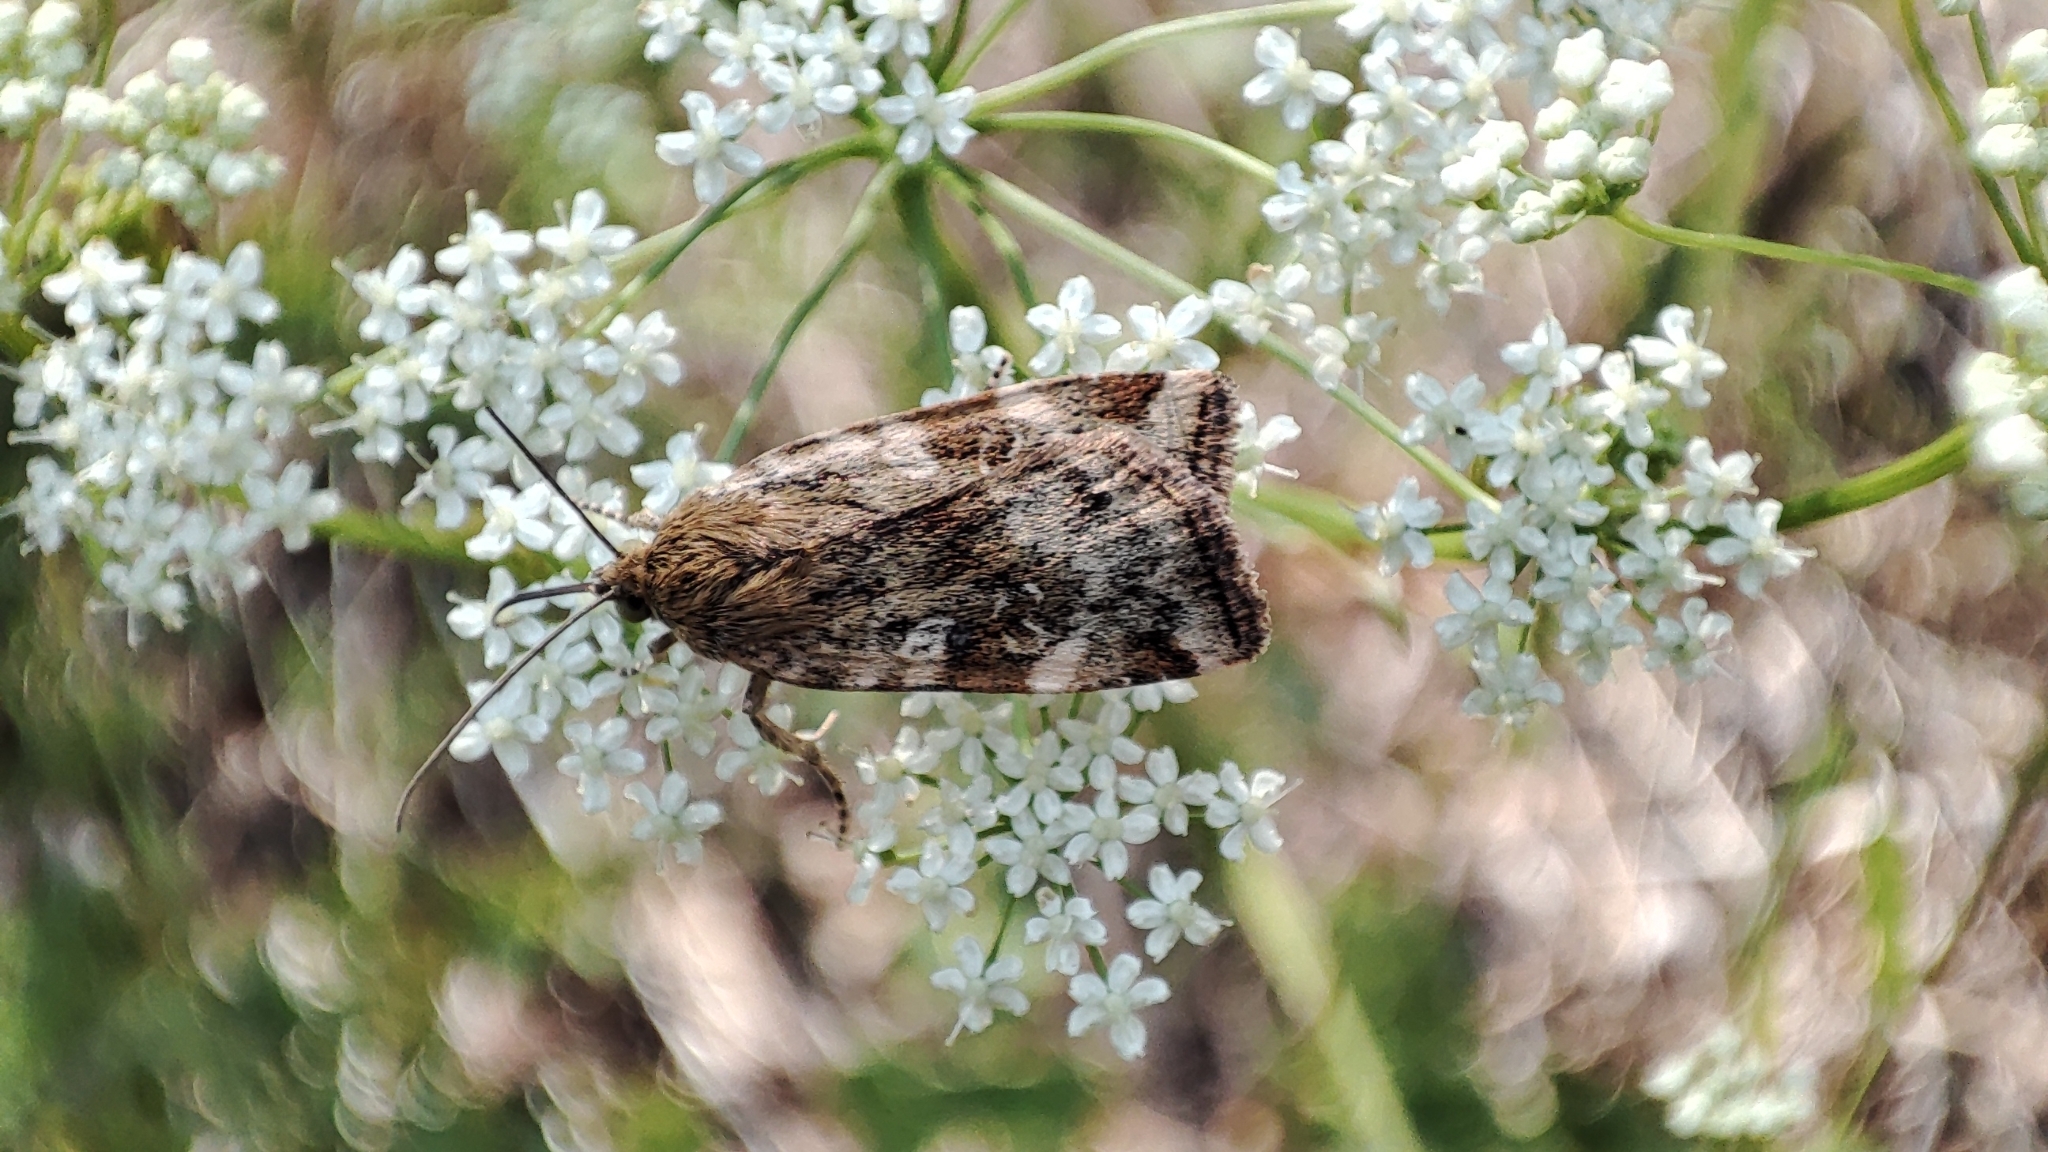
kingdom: Animalia
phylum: Arthropoda
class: Insecta
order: Lepidoptera
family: Noctuidae
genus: Cryptocala
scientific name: Cryptocala chardinyi
